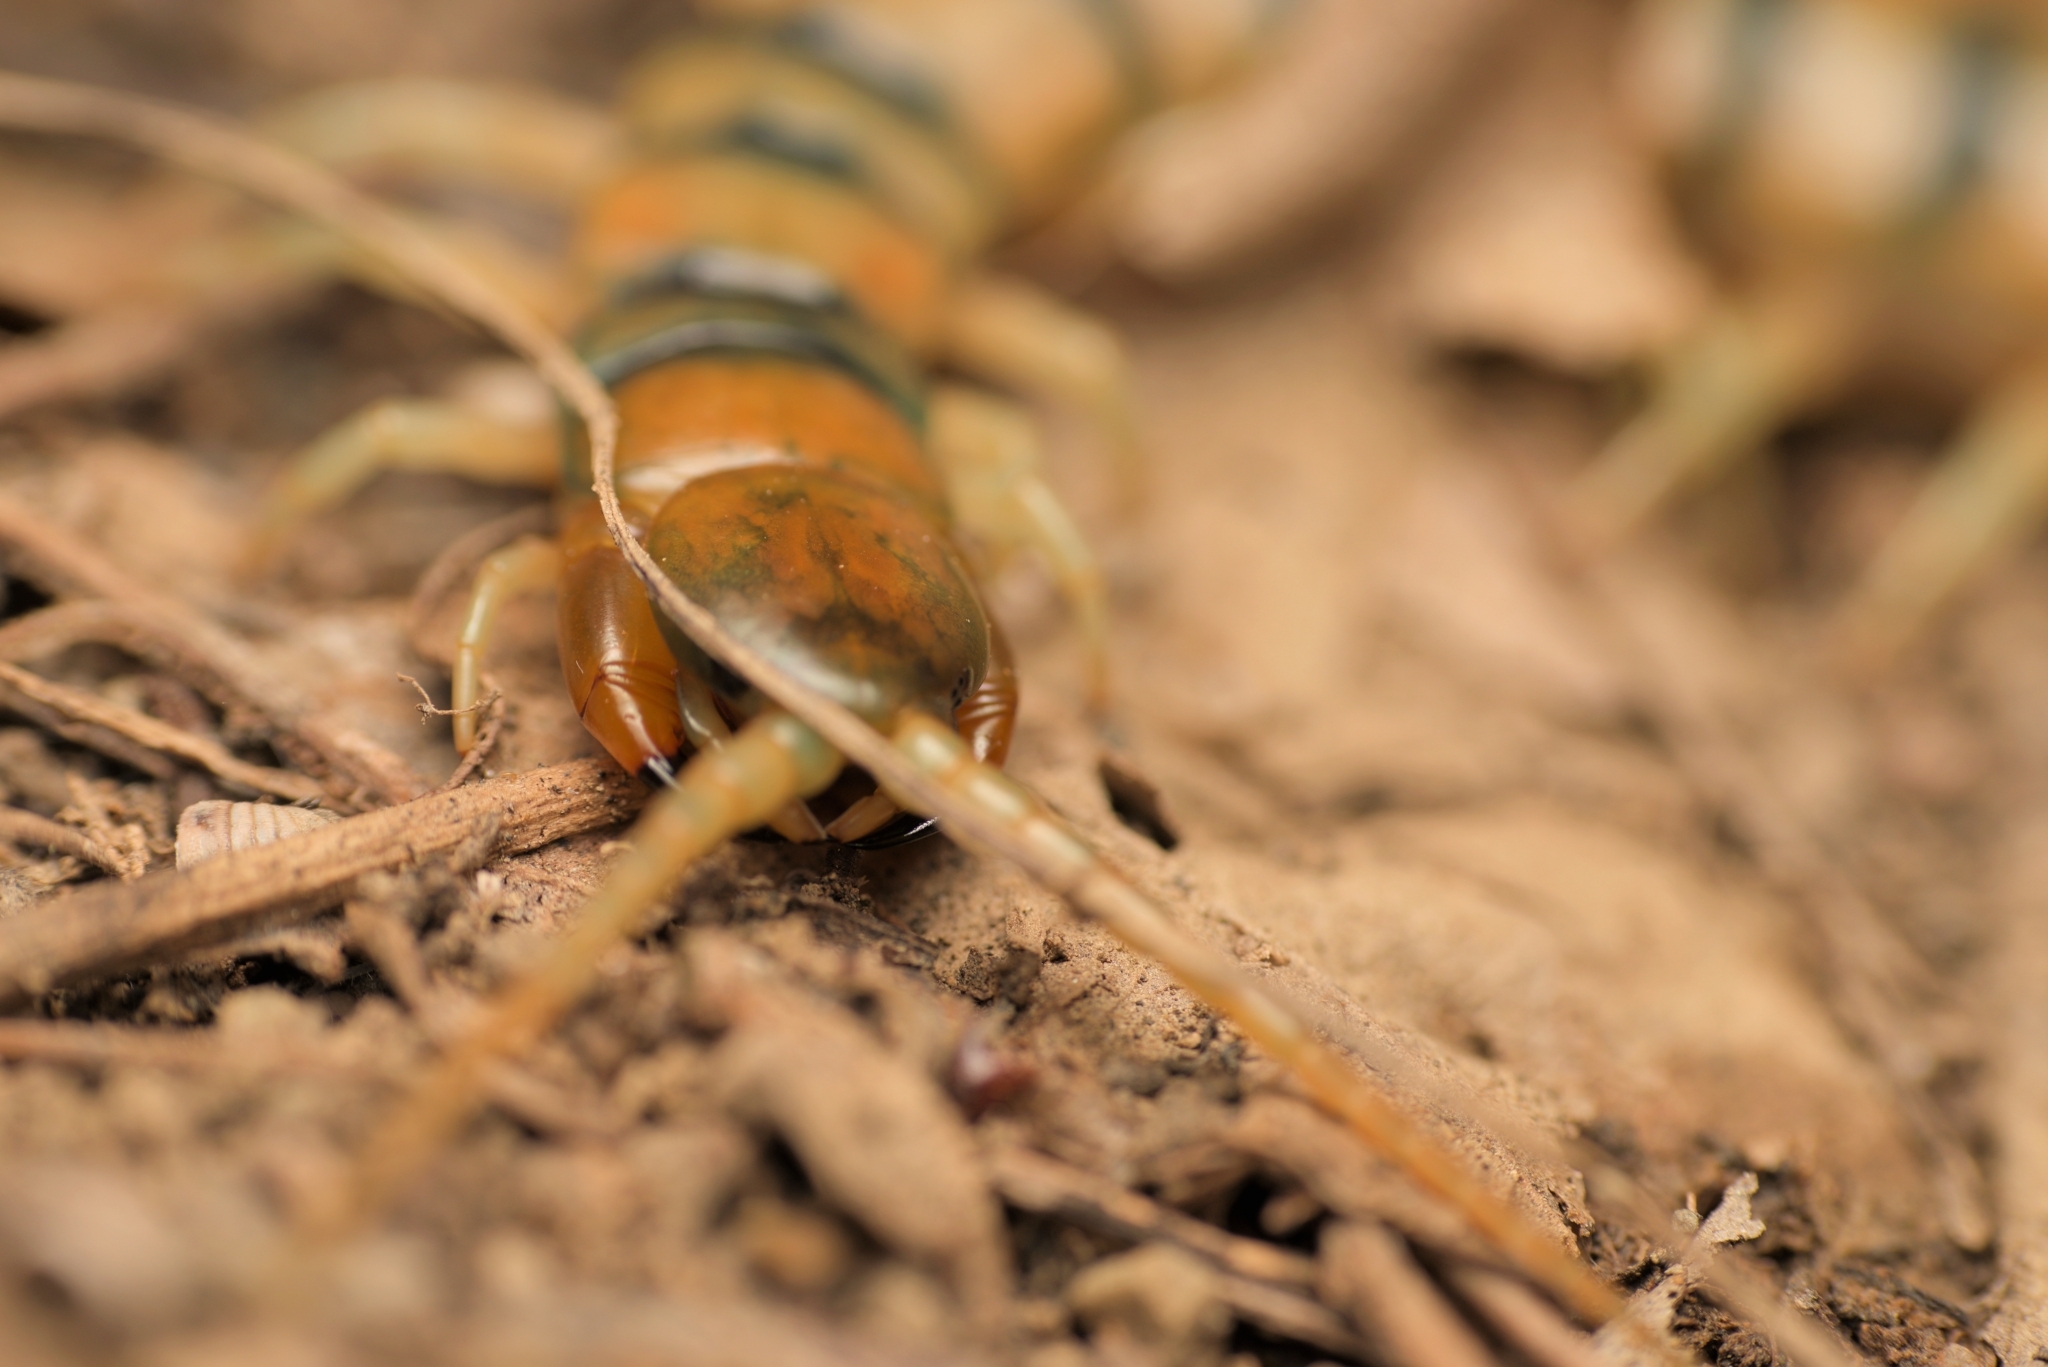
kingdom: Animalia
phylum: Arthropoda
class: Chilopoda
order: Scolopendromorpha
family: Scolopendridae
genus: Scolopendra
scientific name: Scolopendra cingulata
